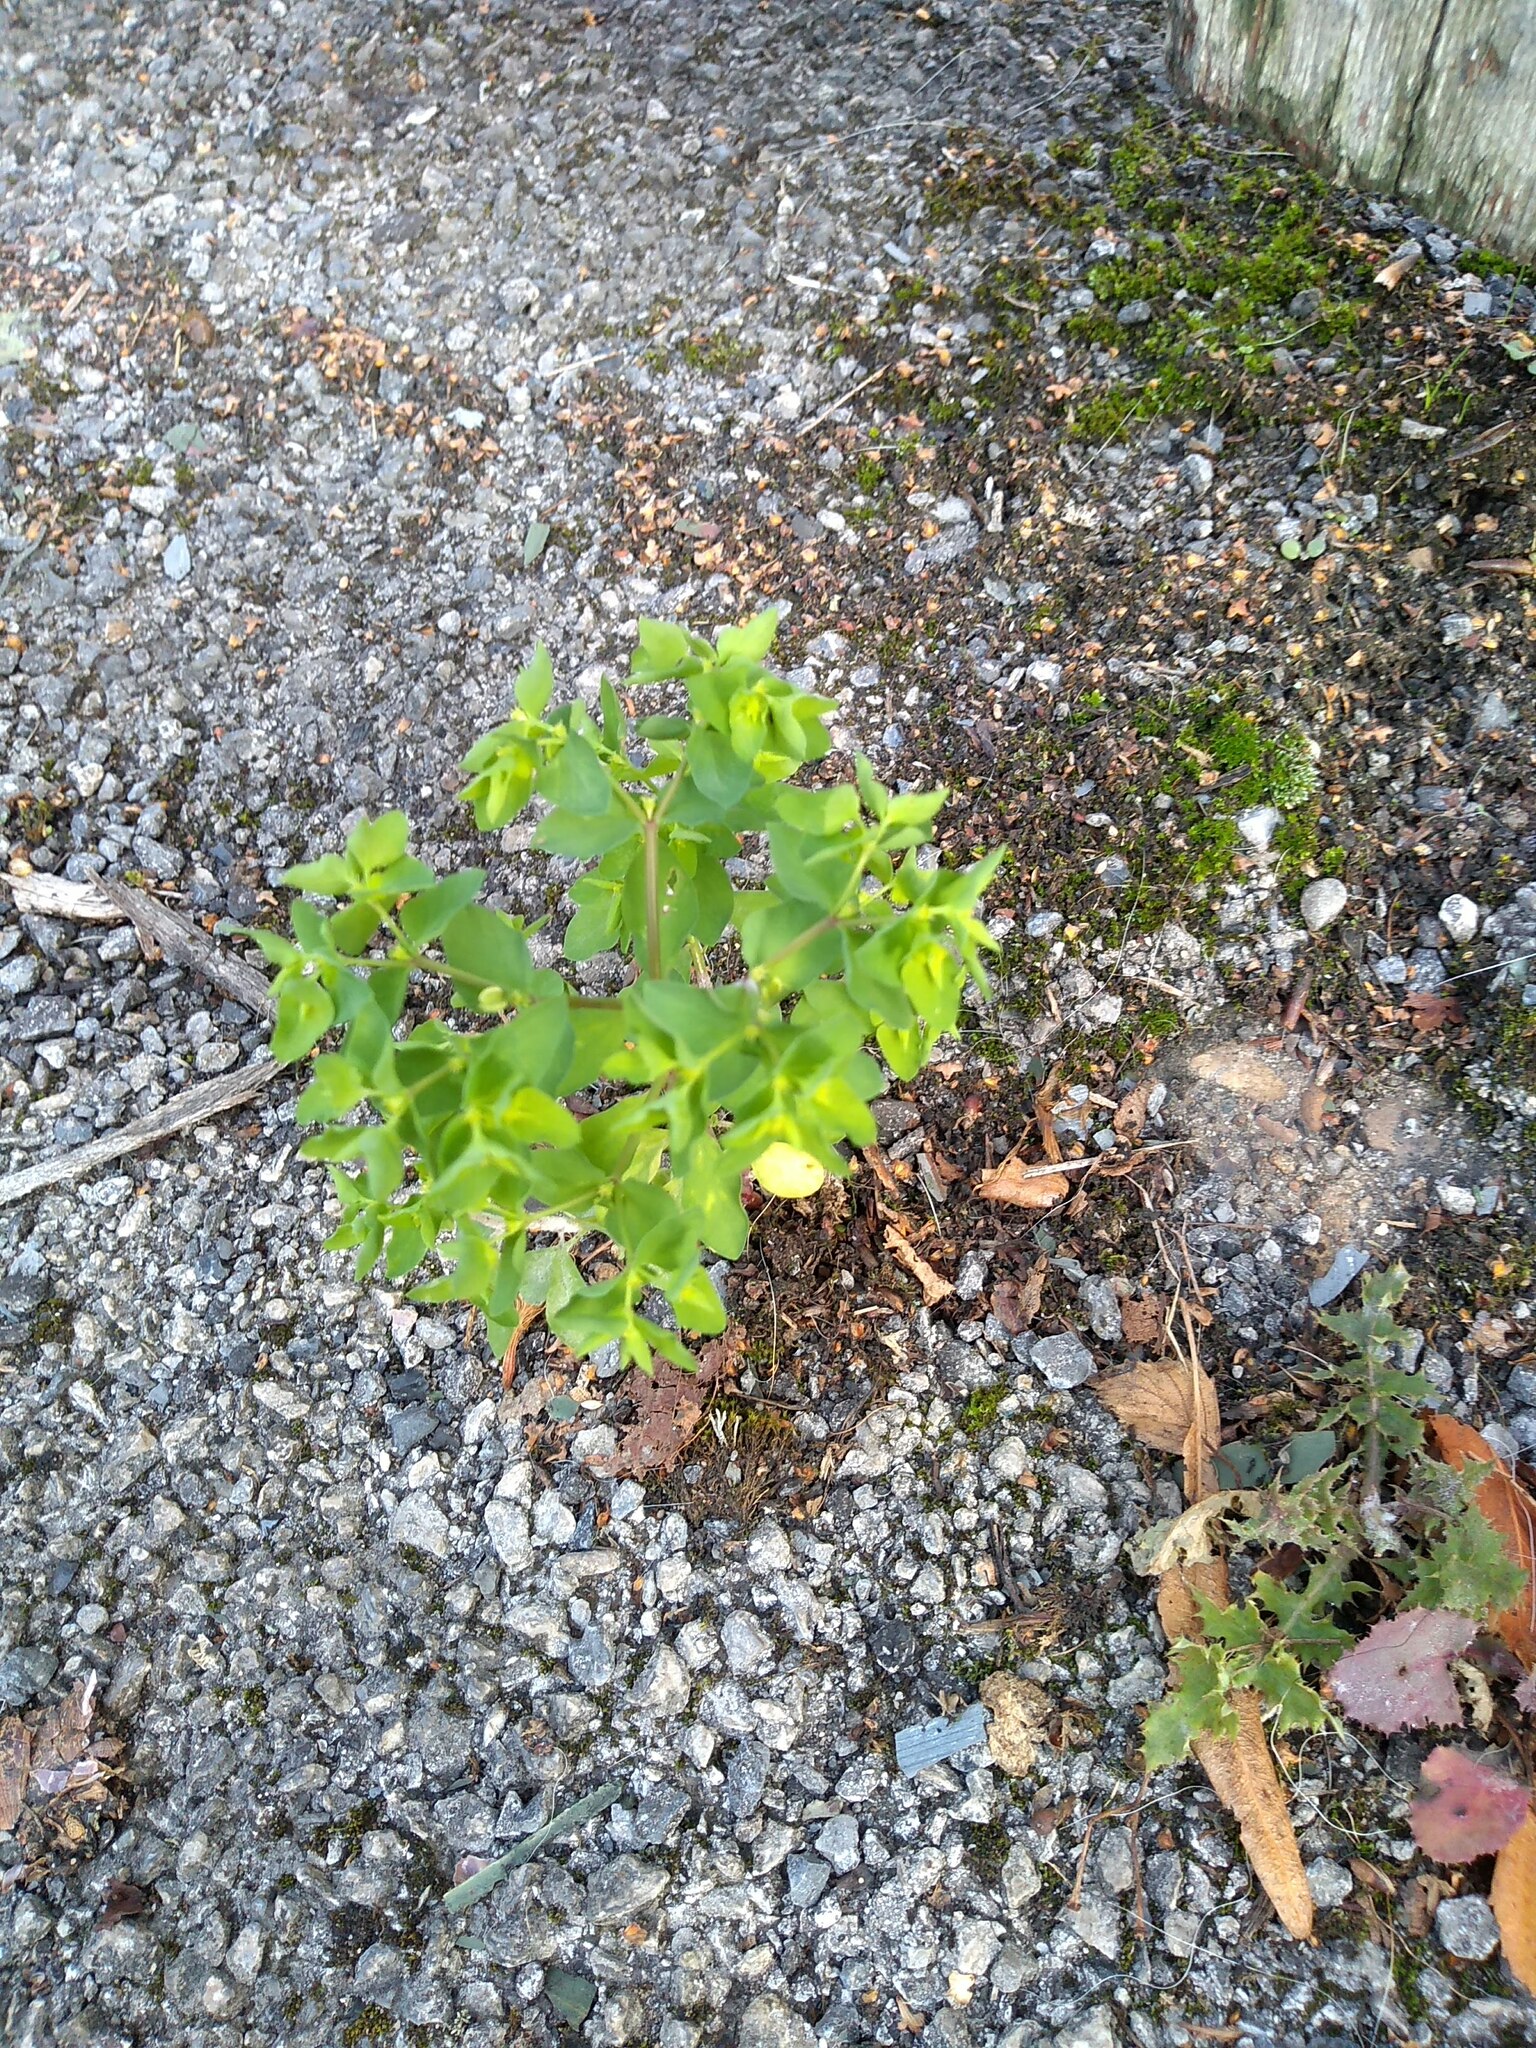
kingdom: Plantae
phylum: Tracheophyta
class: Magnoliopsida
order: Malpighiales
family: Euphorbiaceae
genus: Euphorbia
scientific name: Euphorbia peplus
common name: Petty spurge
